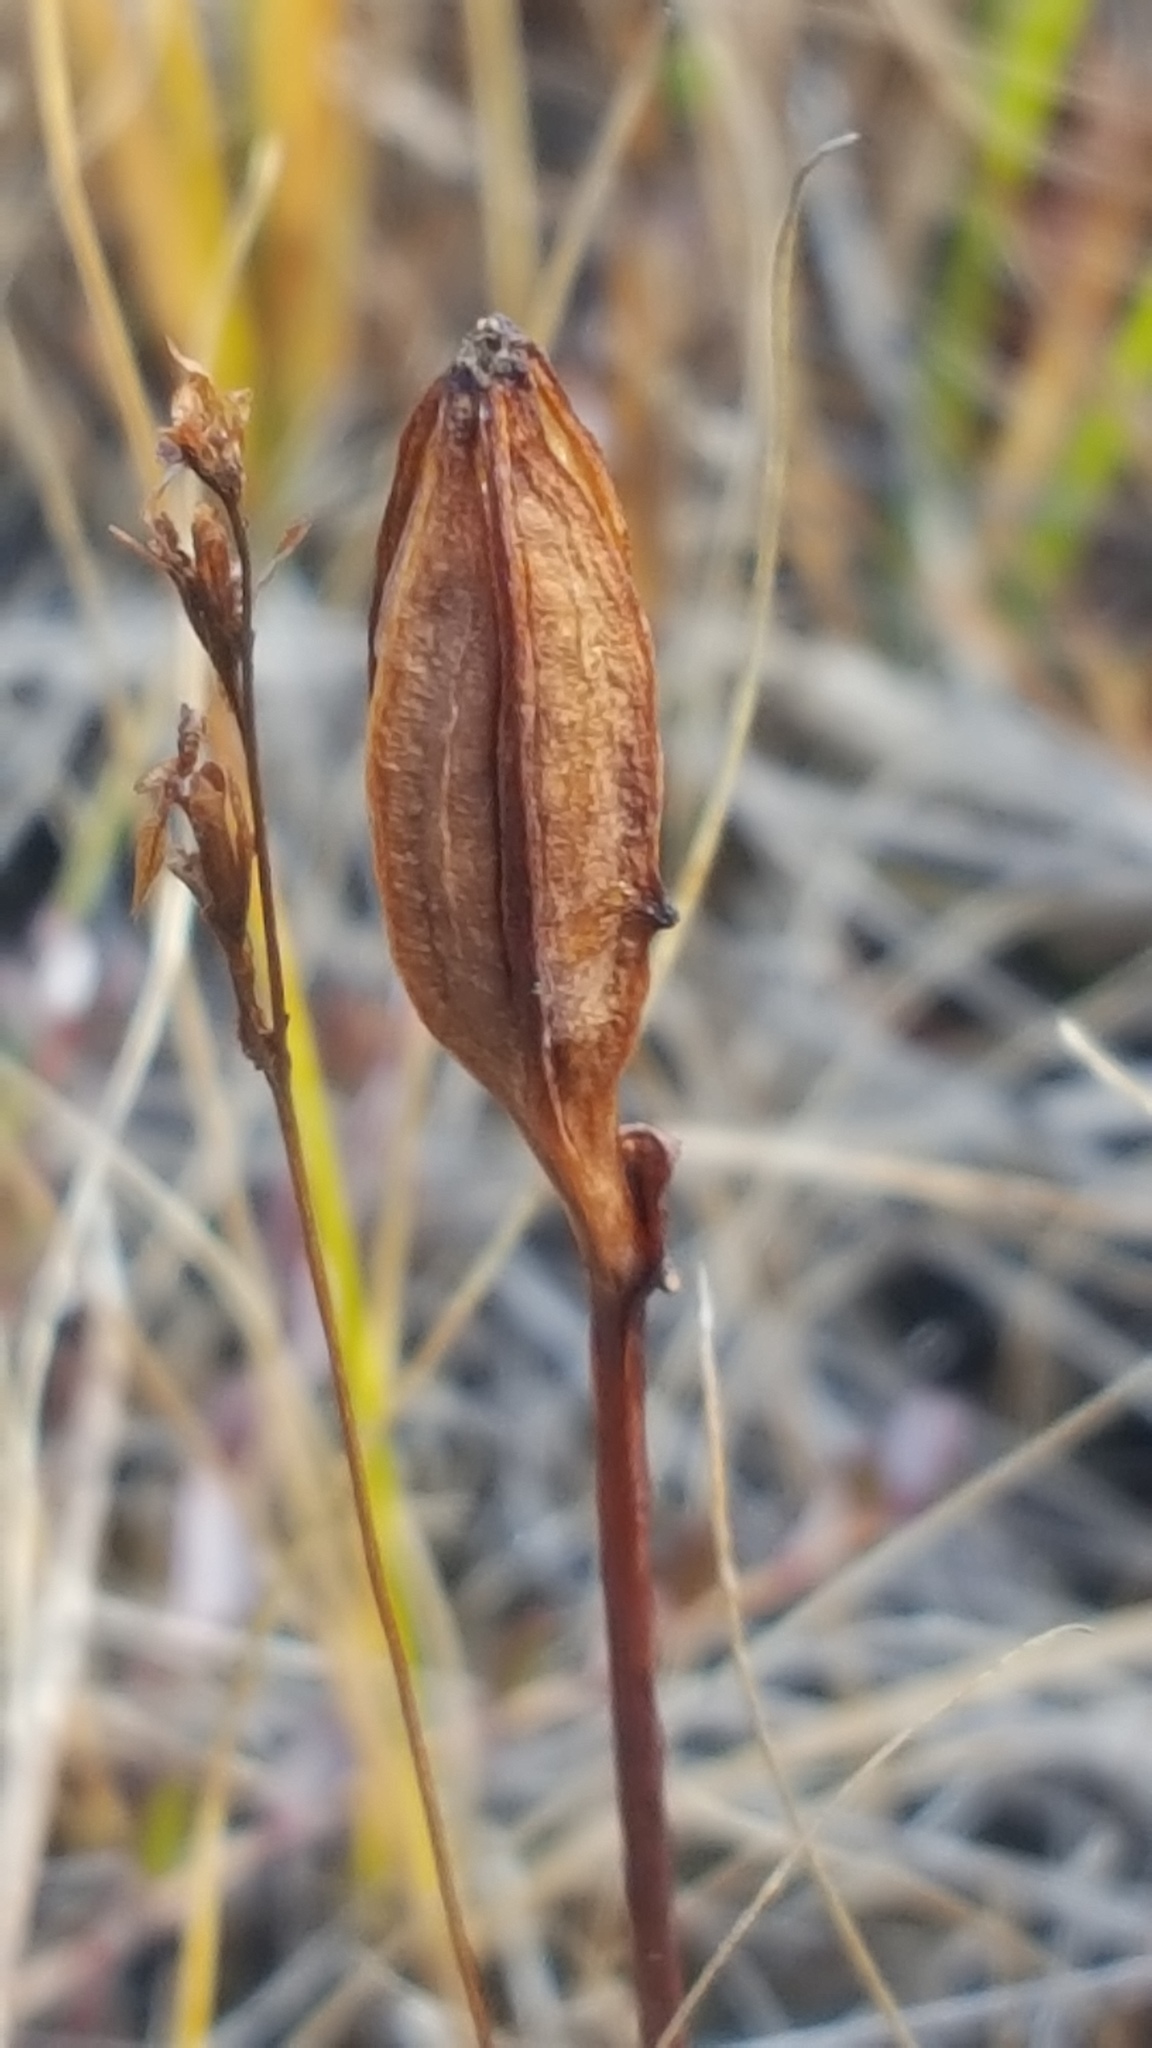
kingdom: Plantae
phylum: Tracheophyta
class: Liliopsida
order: Asparagales
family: Orchidaceae
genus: Pogonia
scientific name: Pogonia ophioglossoides
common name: Rose pogonia
